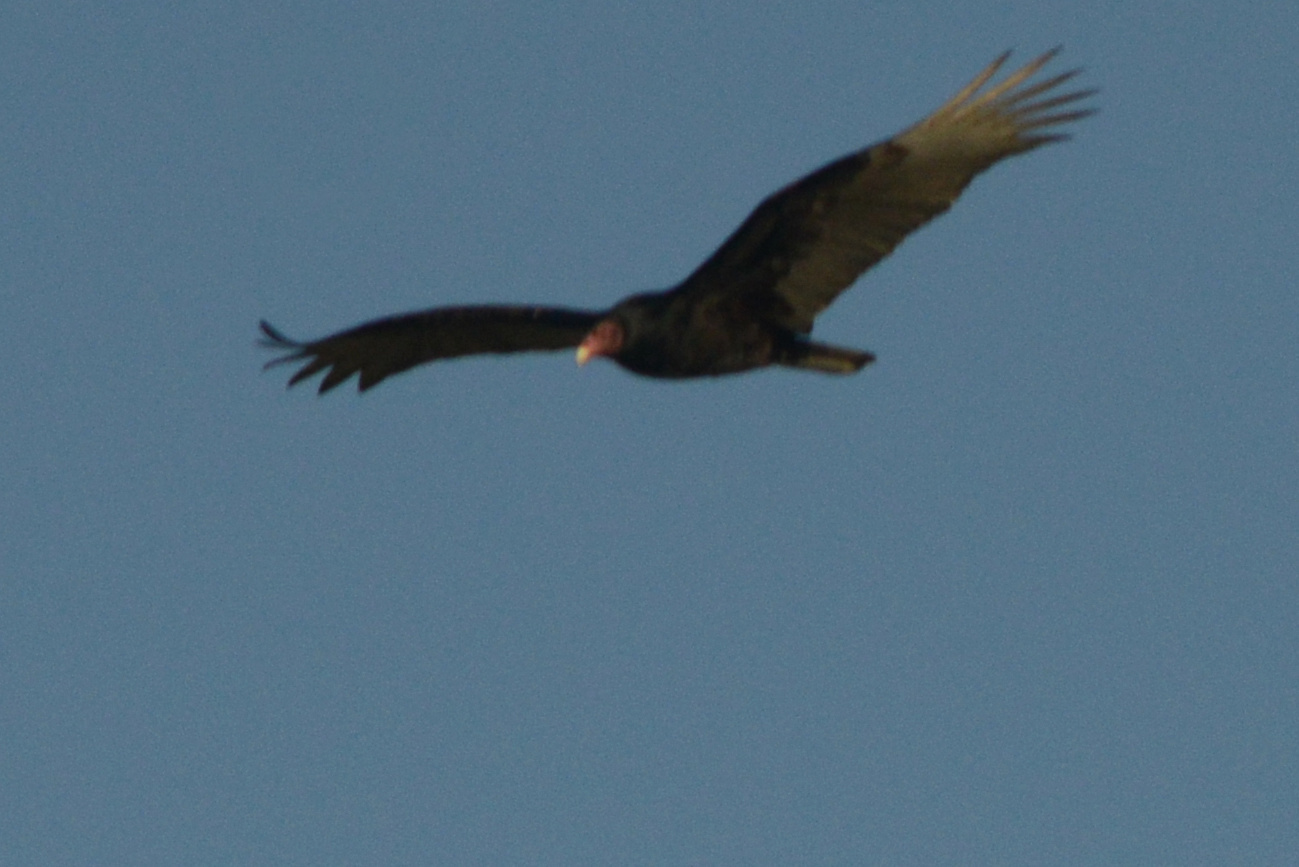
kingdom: Animalia
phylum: Chordata
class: Aves
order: Accipitriformes
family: Cathartidae
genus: Cathartes
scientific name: Cathartes aura
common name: Turkey vulture
